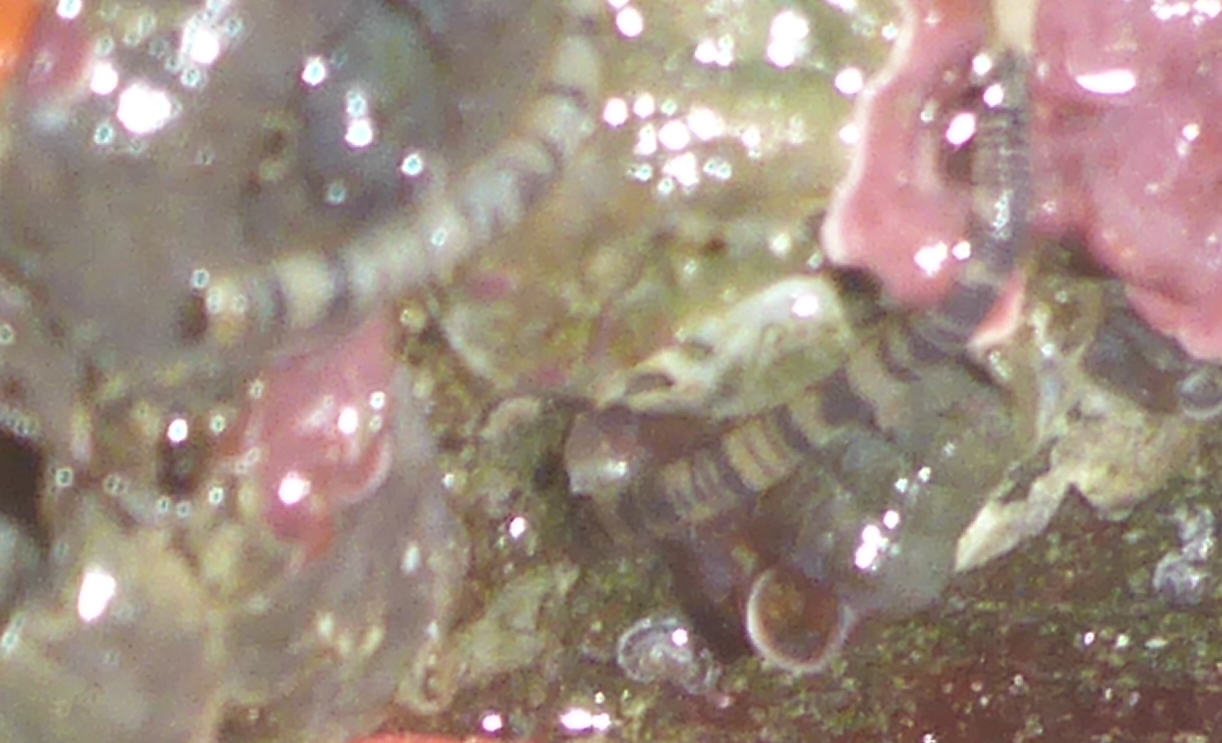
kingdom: Animalia
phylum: Sipuncula
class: Phascolosomatidea
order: Phascolosomatiformes
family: Phascolosomatidae
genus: Phascolosoma
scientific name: Phascolosoma agassizii
